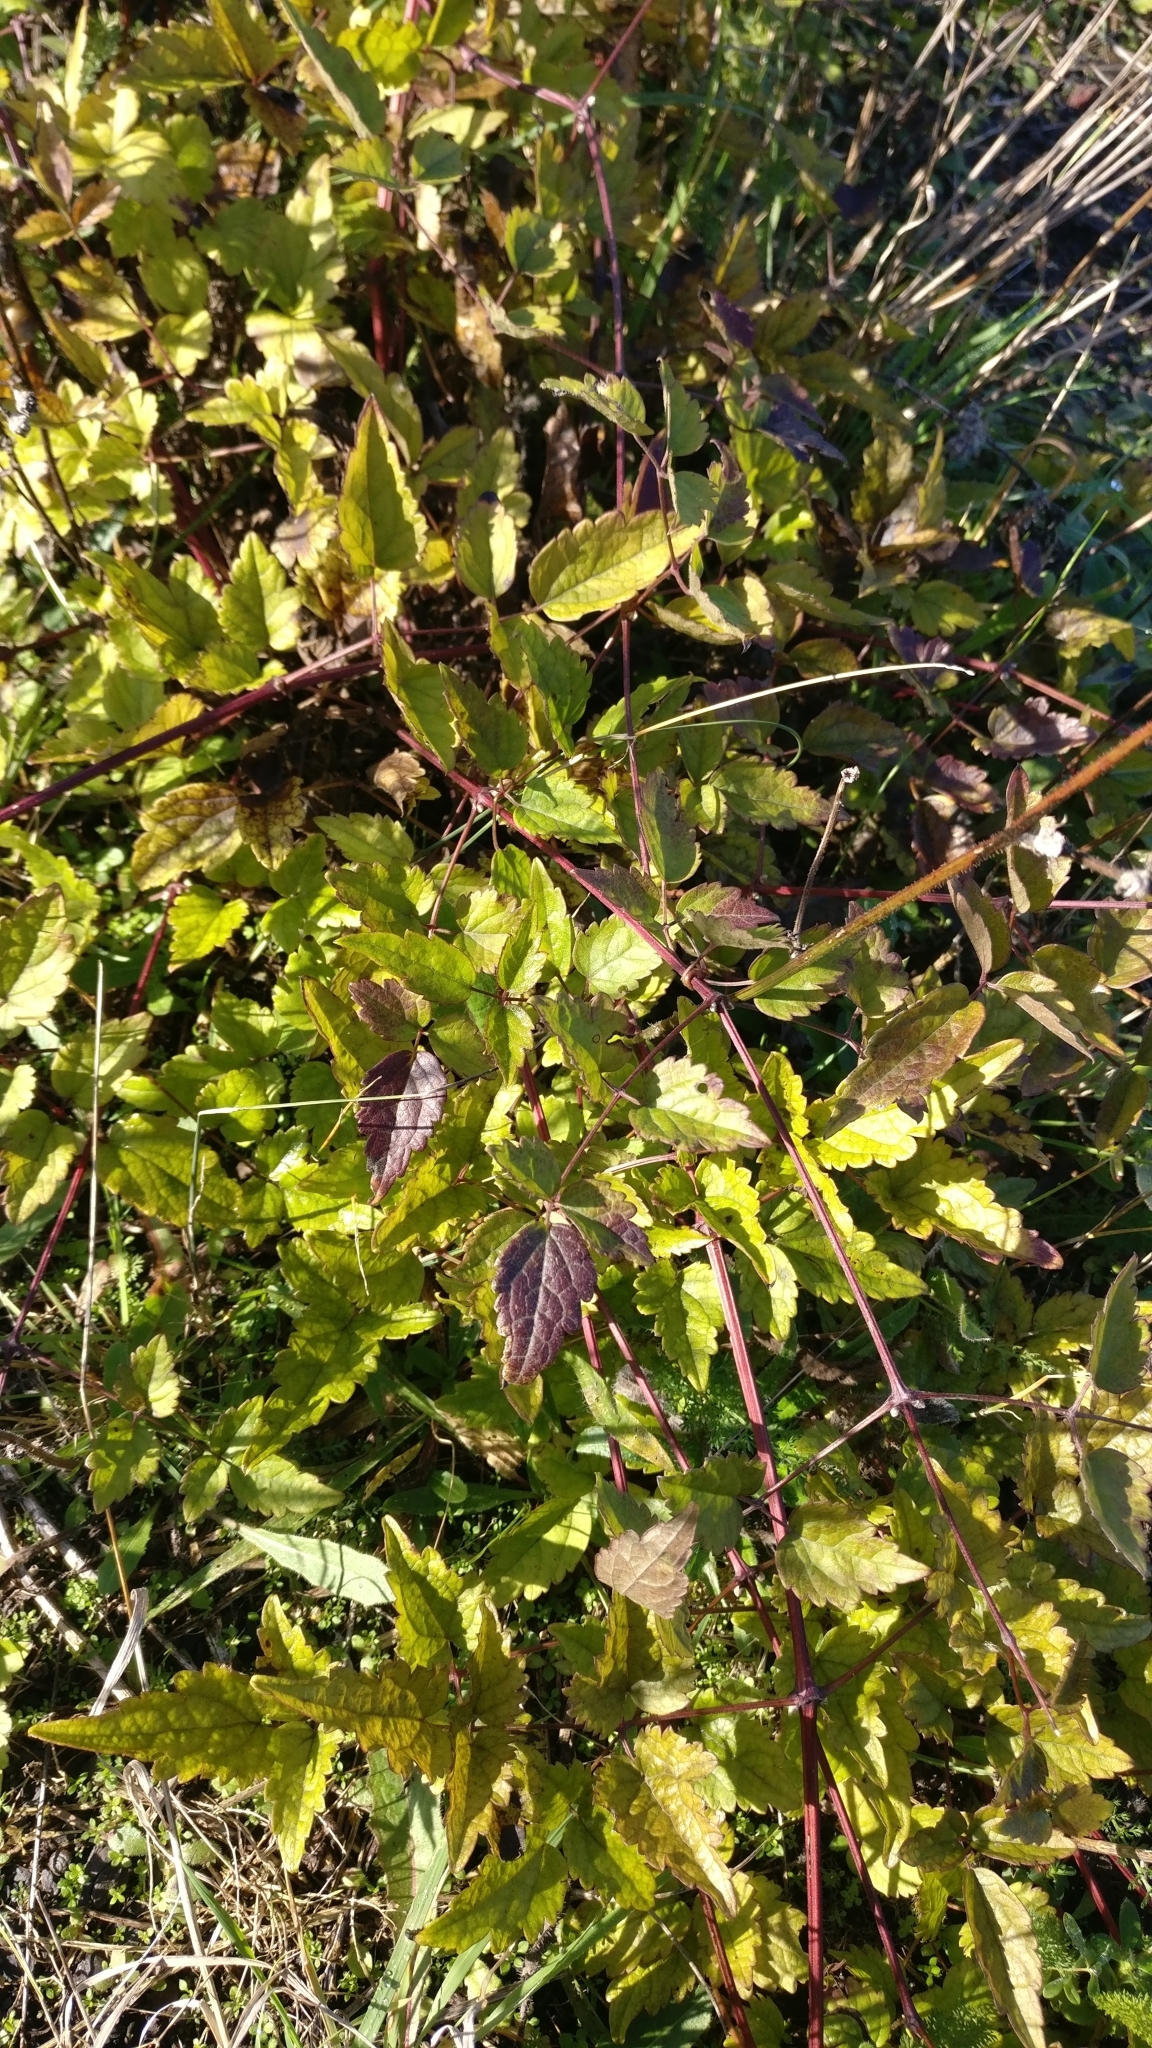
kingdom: Plantae
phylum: Tracheophyta
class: Magnoliopsida
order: Ranunculales
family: Ranunculaceae
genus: Clematis
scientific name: Clematis vitalba
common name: Evergreen clematis
